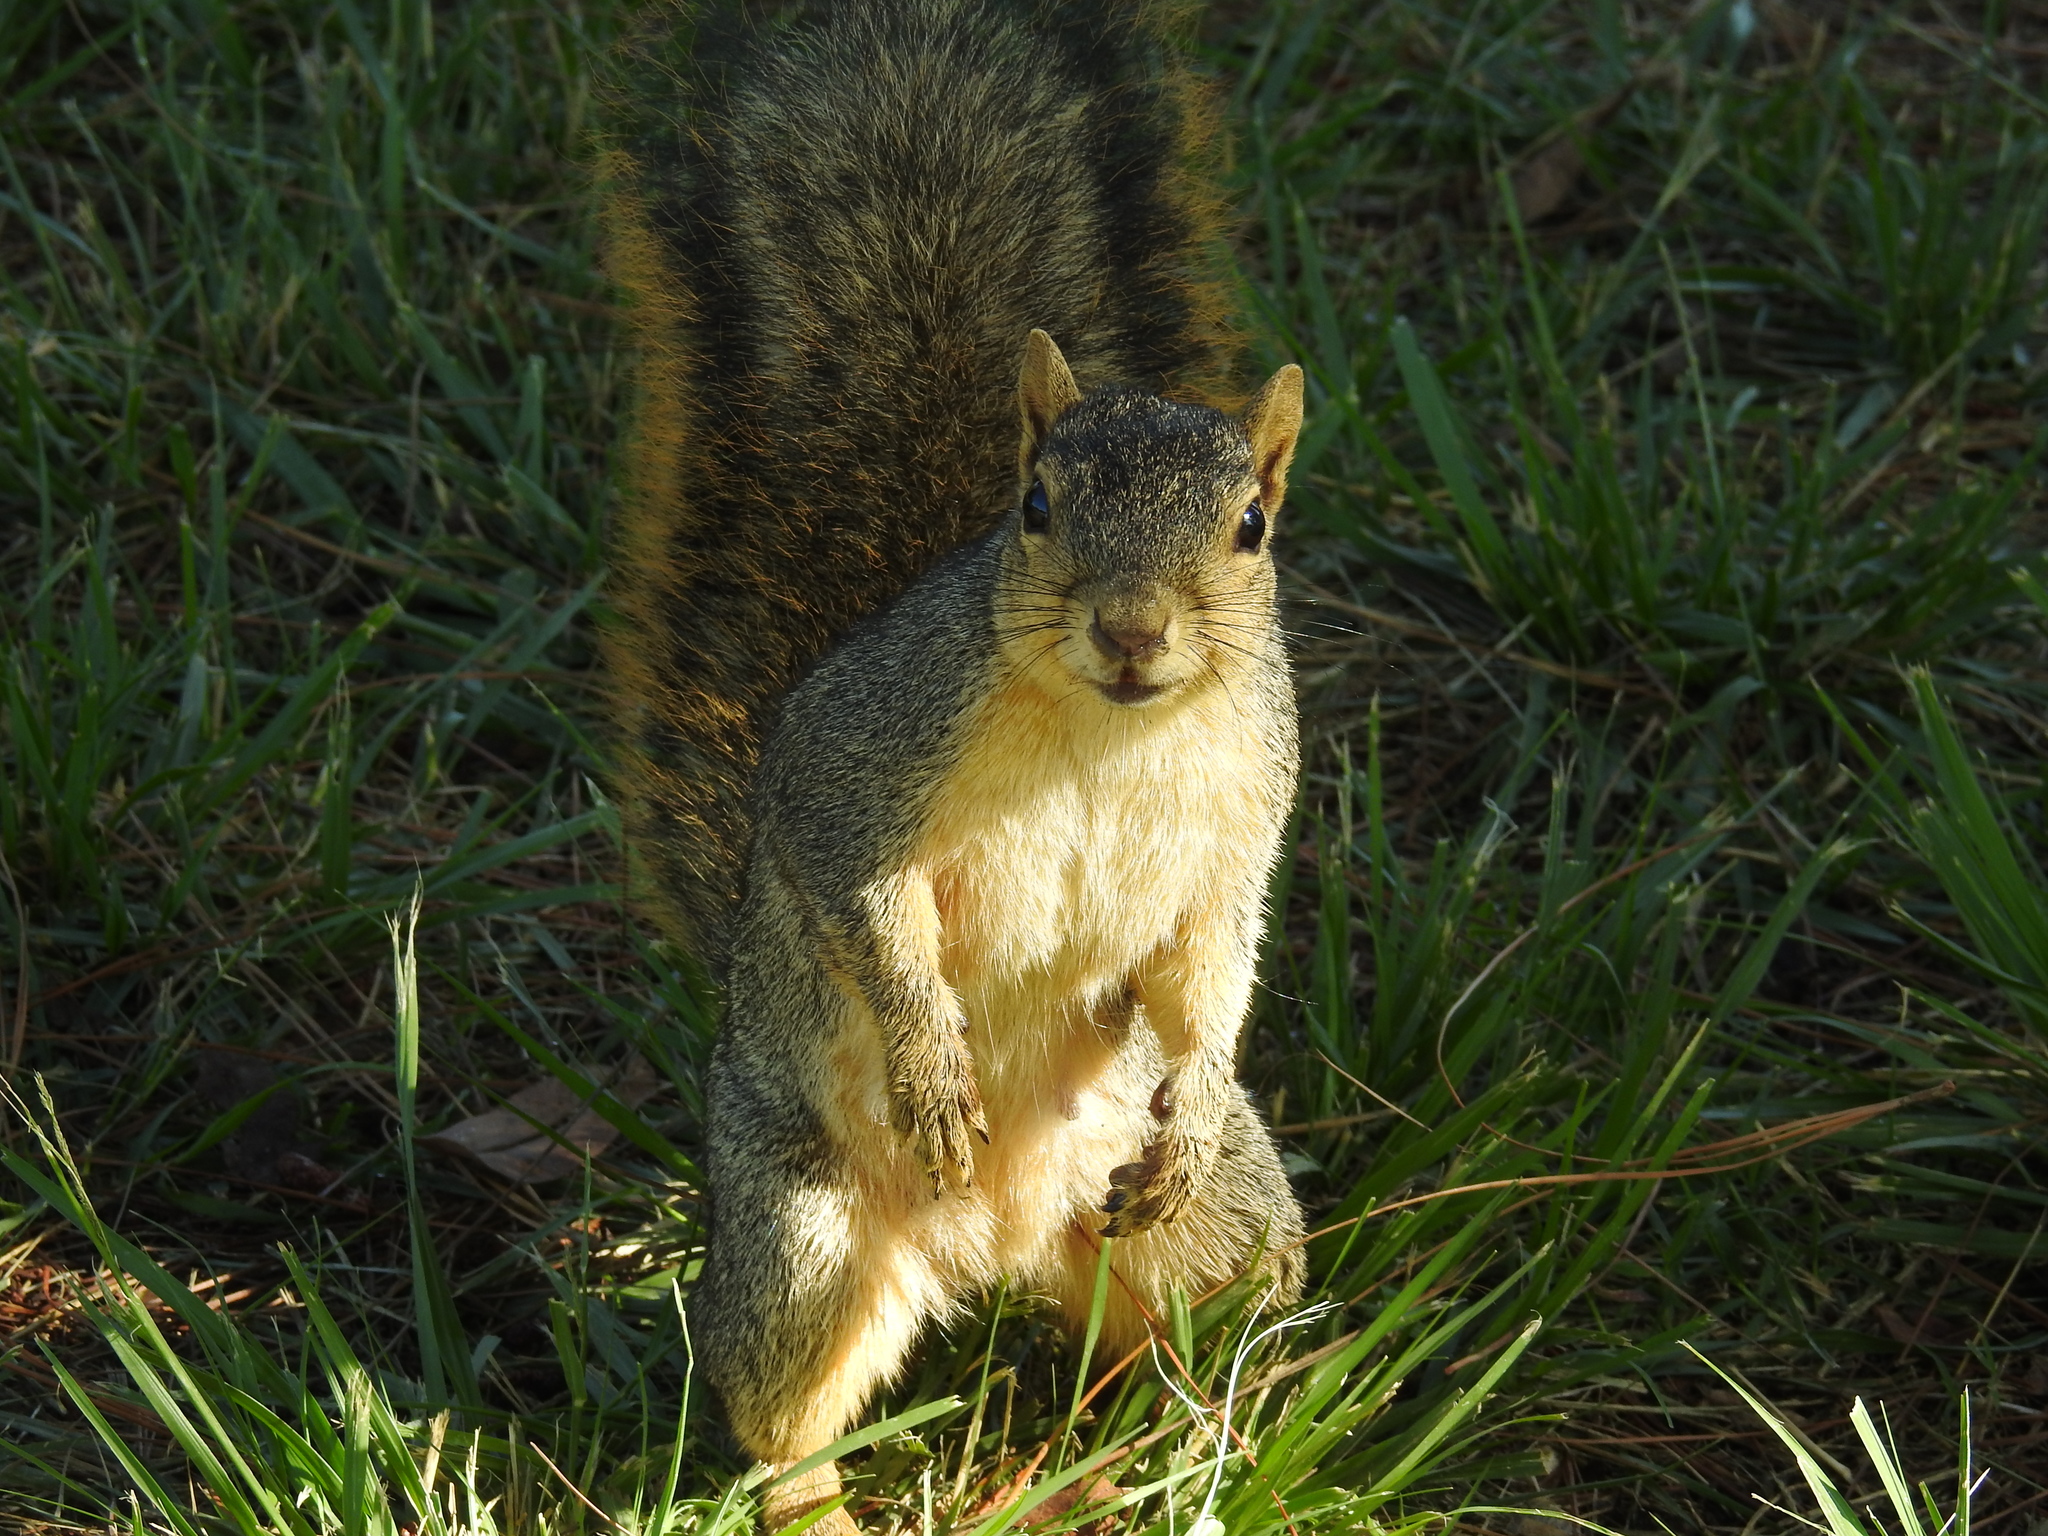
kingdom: Animalia
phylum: Chordata
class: Mammalia
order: Rodentia
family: Sciuridae
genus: Sciurus
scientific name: Sciurus niger
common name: Fox squirrel
